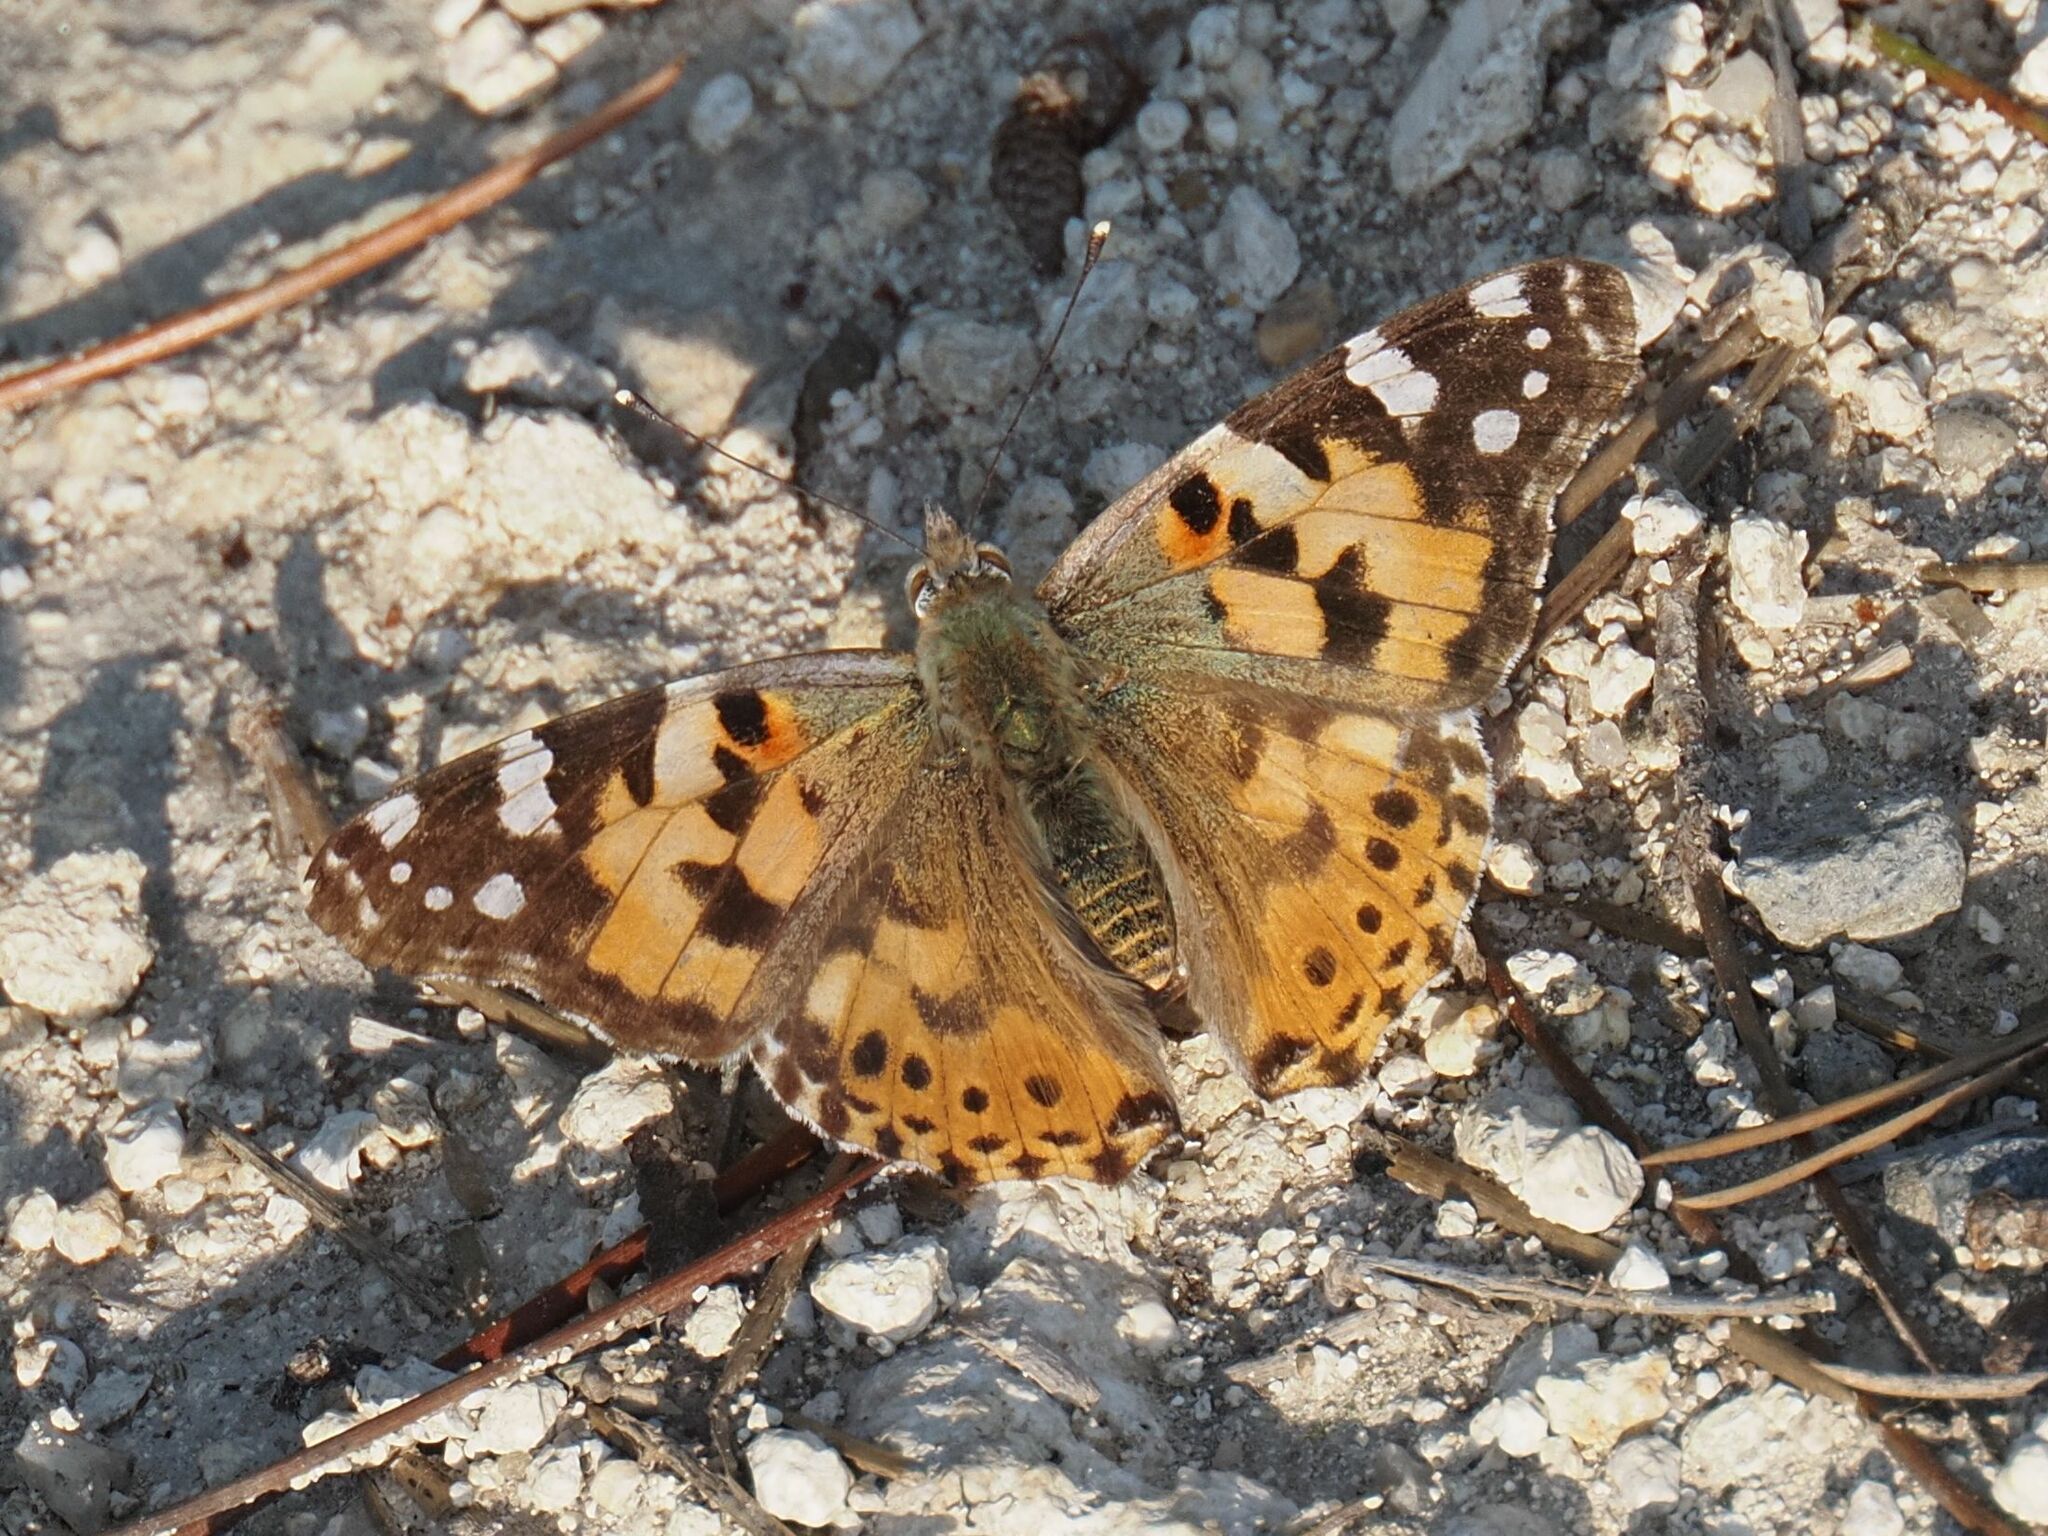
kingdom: Animalia
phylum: Arthropoda
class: Insecta
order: Lepidoptera
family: Nymphalidae
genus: Vanessa
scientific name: Vanessa cardui
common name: Painted lady
